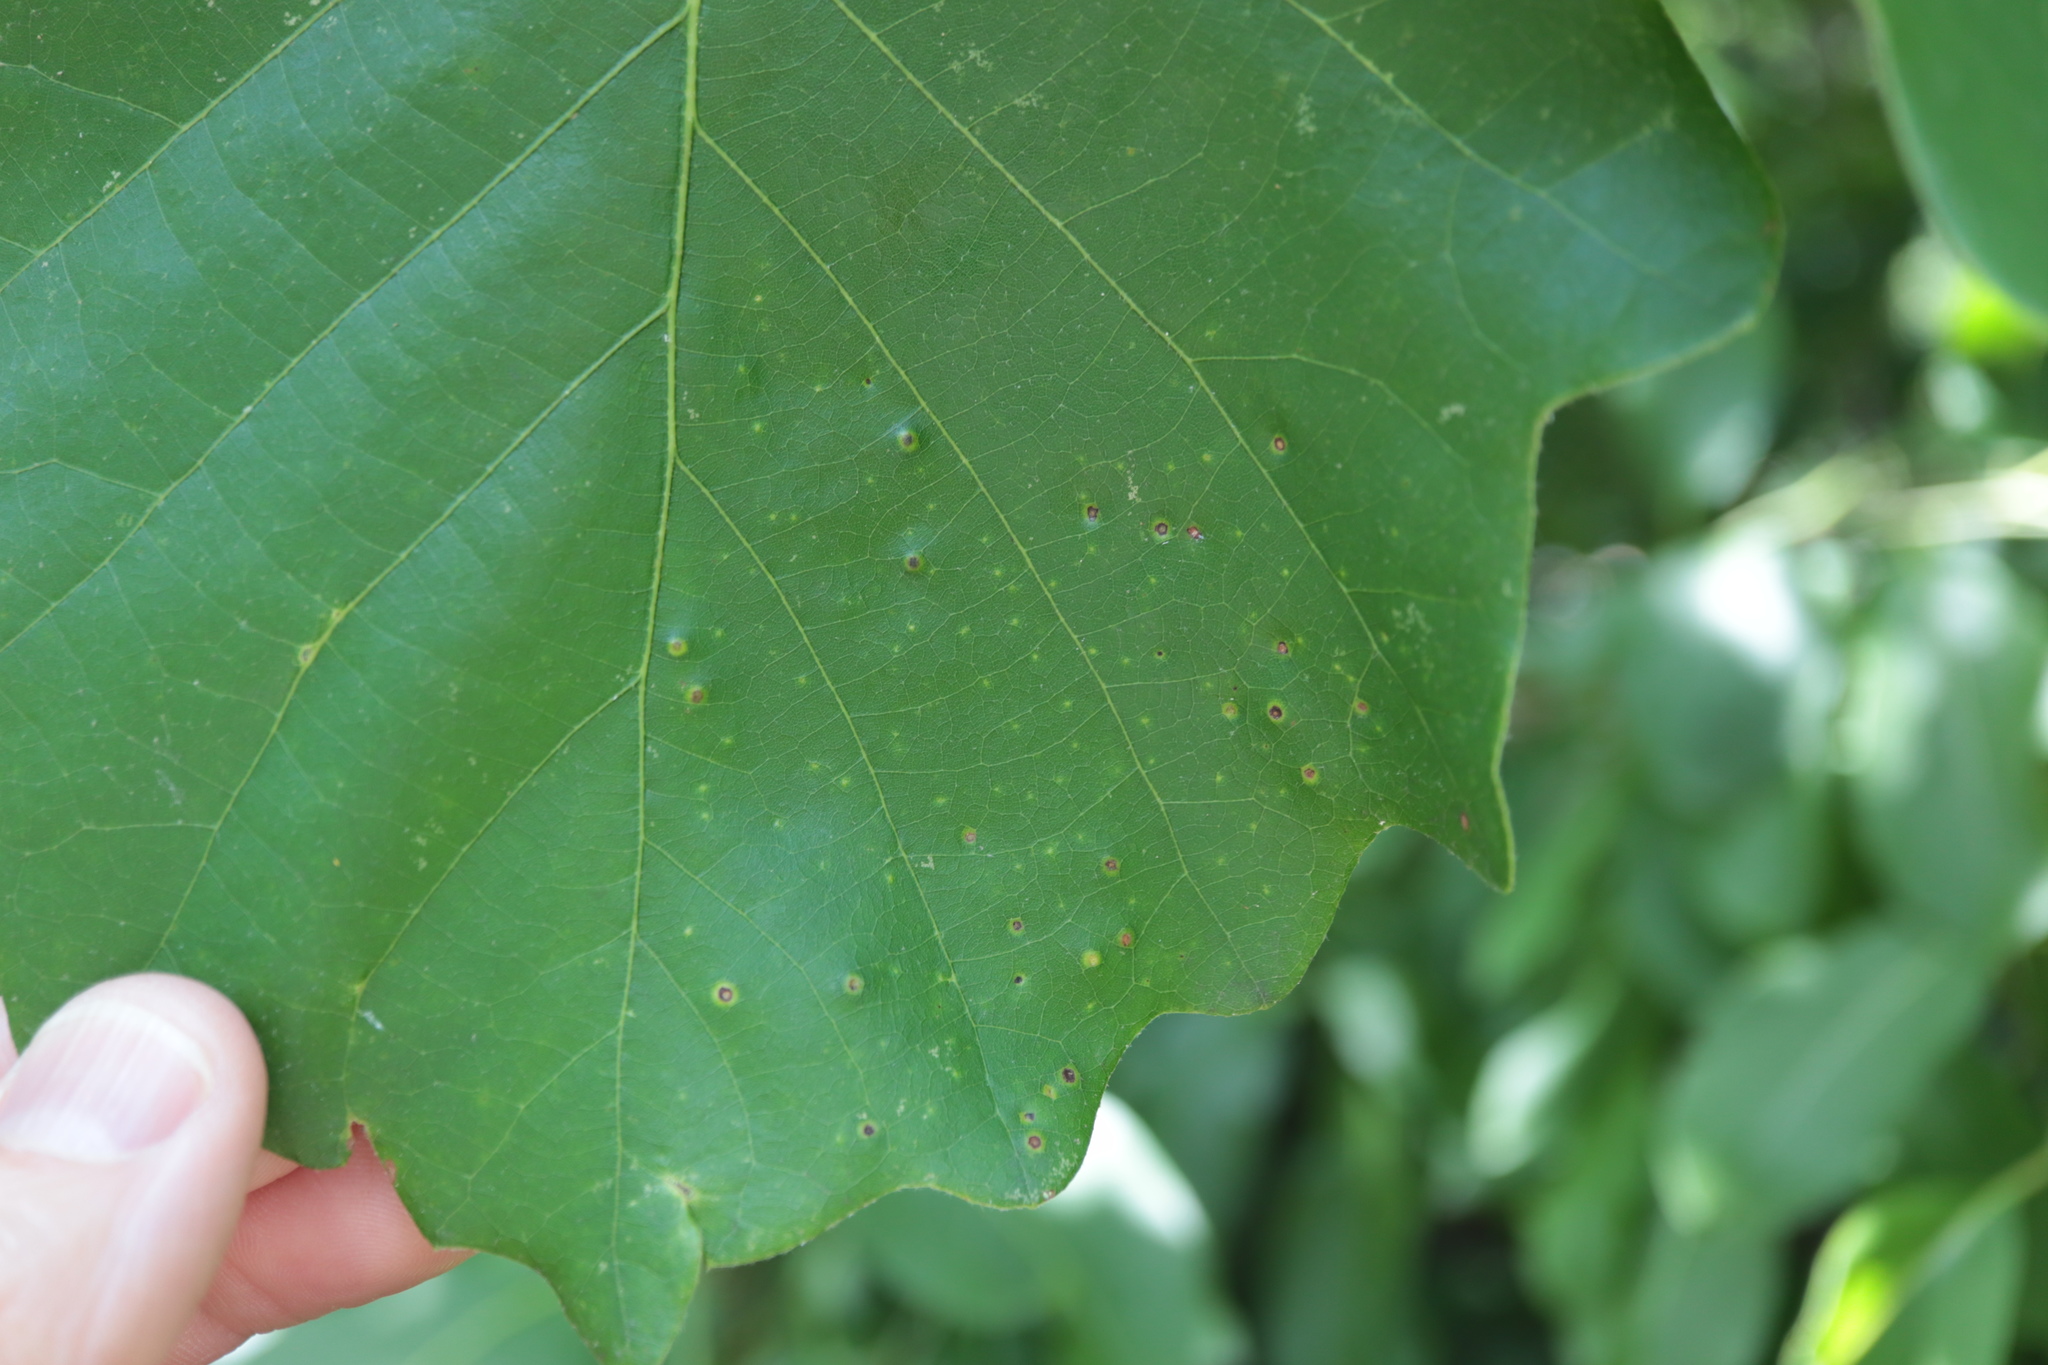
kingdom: Animalia
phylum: Arthropoda
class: Insecta
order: Hymenoptera
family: Cynipidae
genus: Neuroterus
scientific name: Neuroterus
